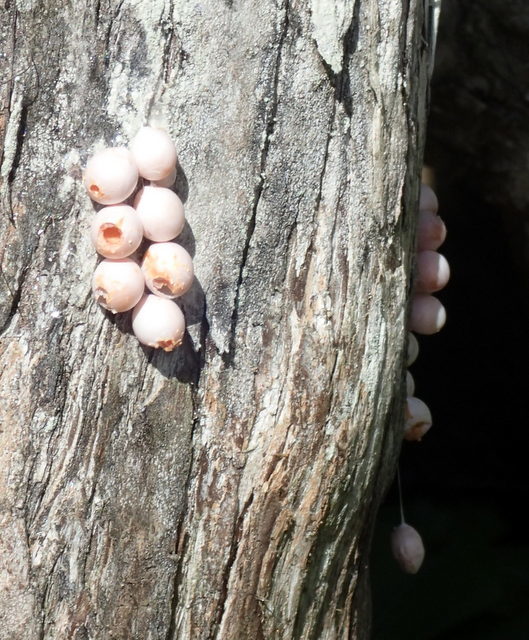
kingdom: Animalia
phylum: Mollusca
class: Gastropoda
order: Architaenioglossa
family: Ampullariidae
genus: Pomacea
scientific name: Pomacea paludosa
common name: Florida applesnail
